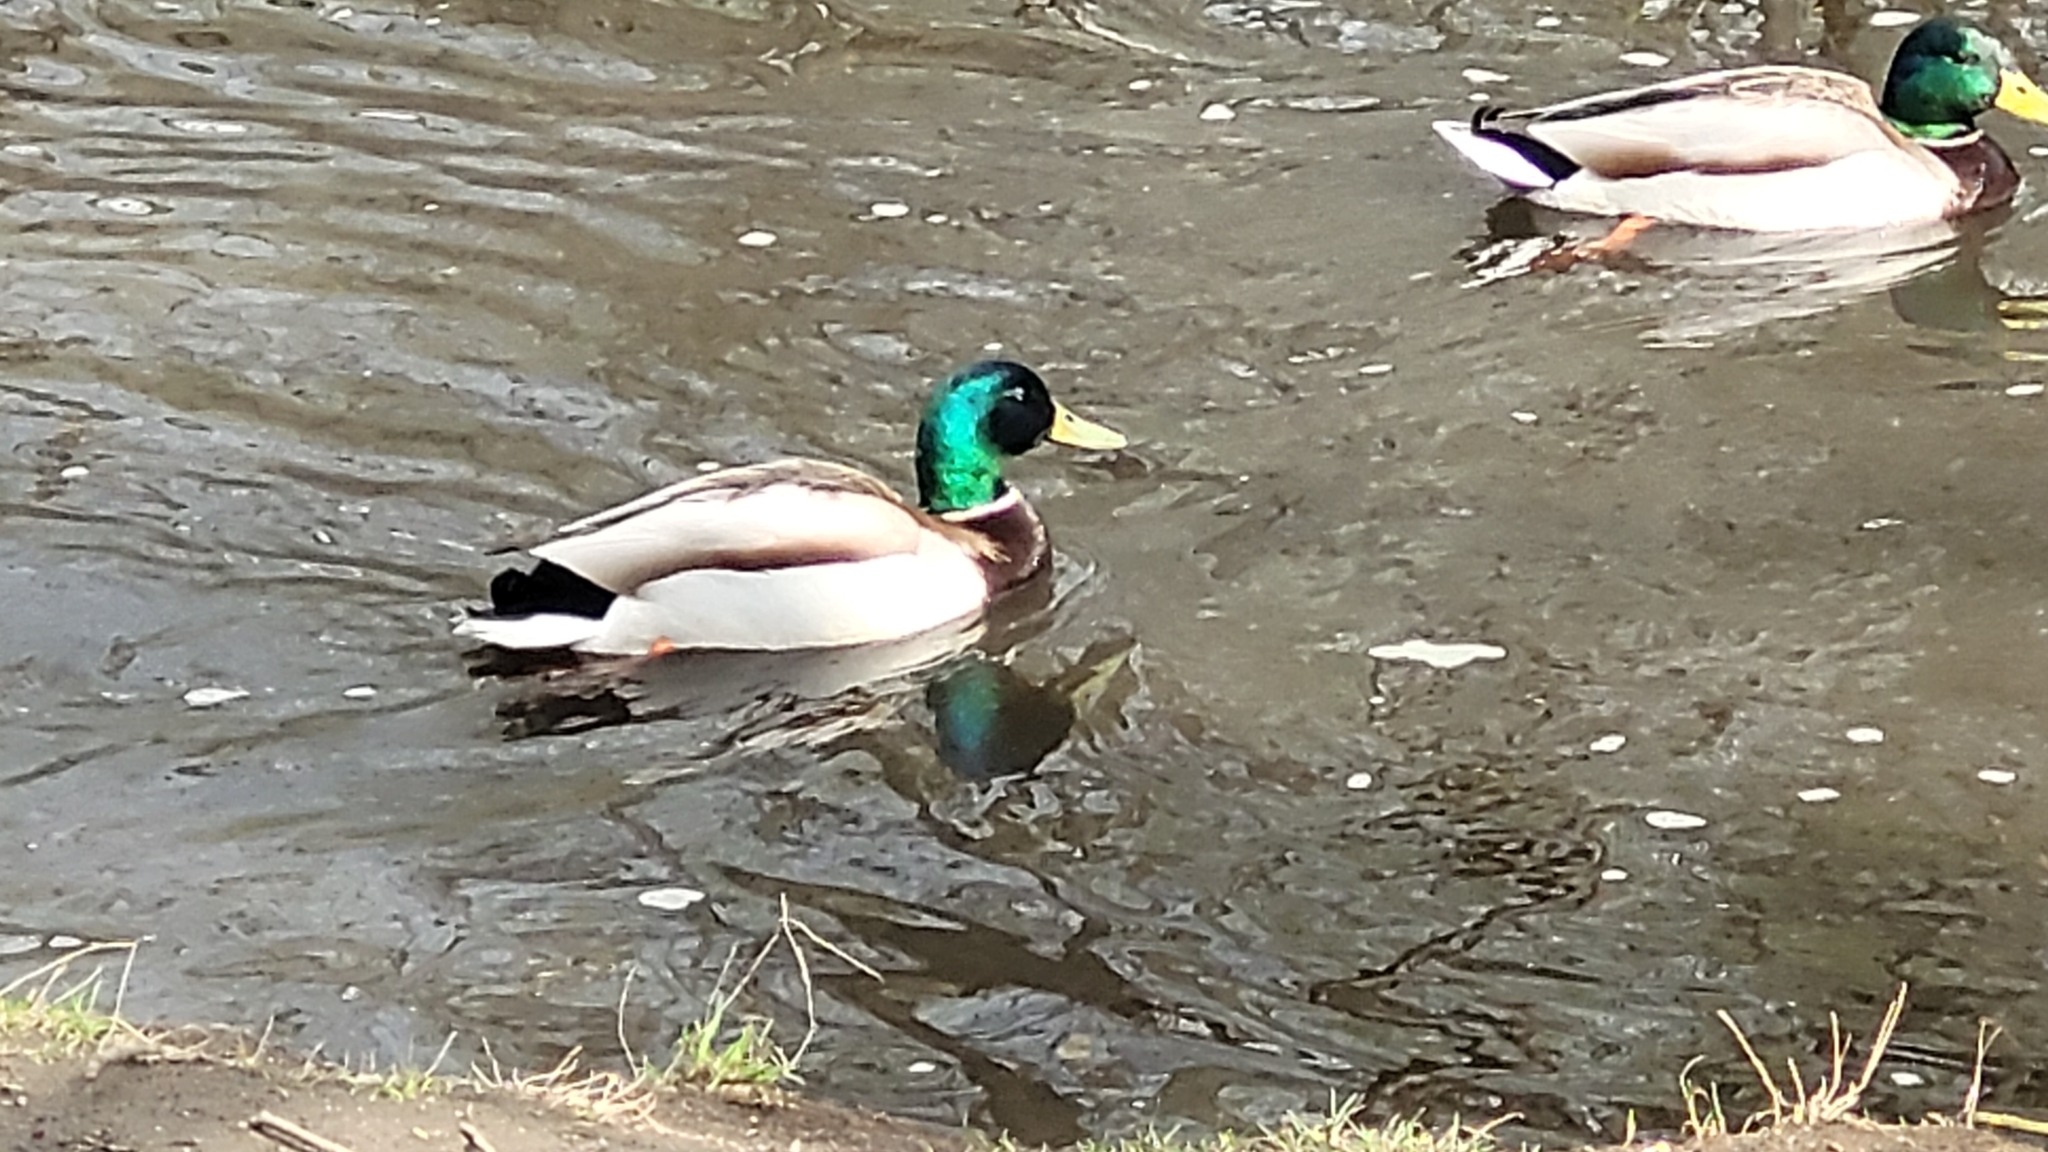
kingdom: Animalia
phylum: Chordata
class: Aves
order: Anseriformes
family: Anatidae
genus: Anas
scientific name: Anas platyrhynchos
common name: Mallard
